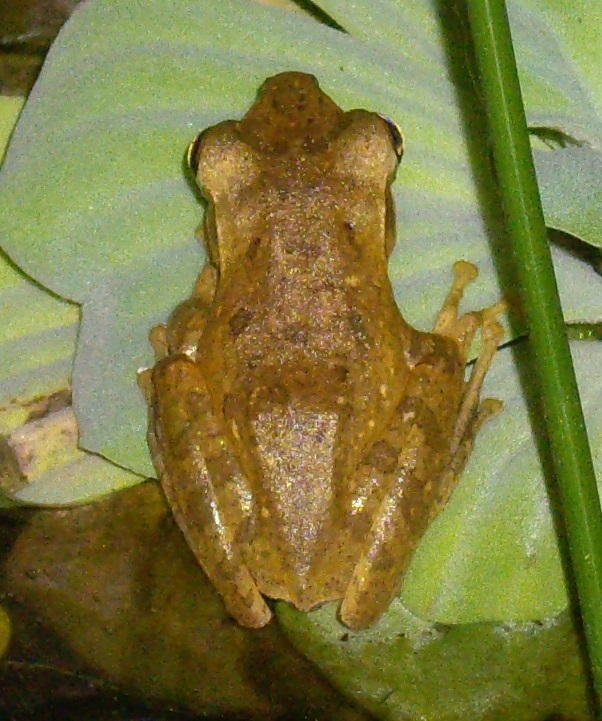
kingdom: Animalia
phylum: Chordata
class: Amphibia
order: Anura
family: Rhacophoridae
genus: Polypedates
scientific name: Polypedates leucomystax
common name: Common tree frog/four-lined tree frog
